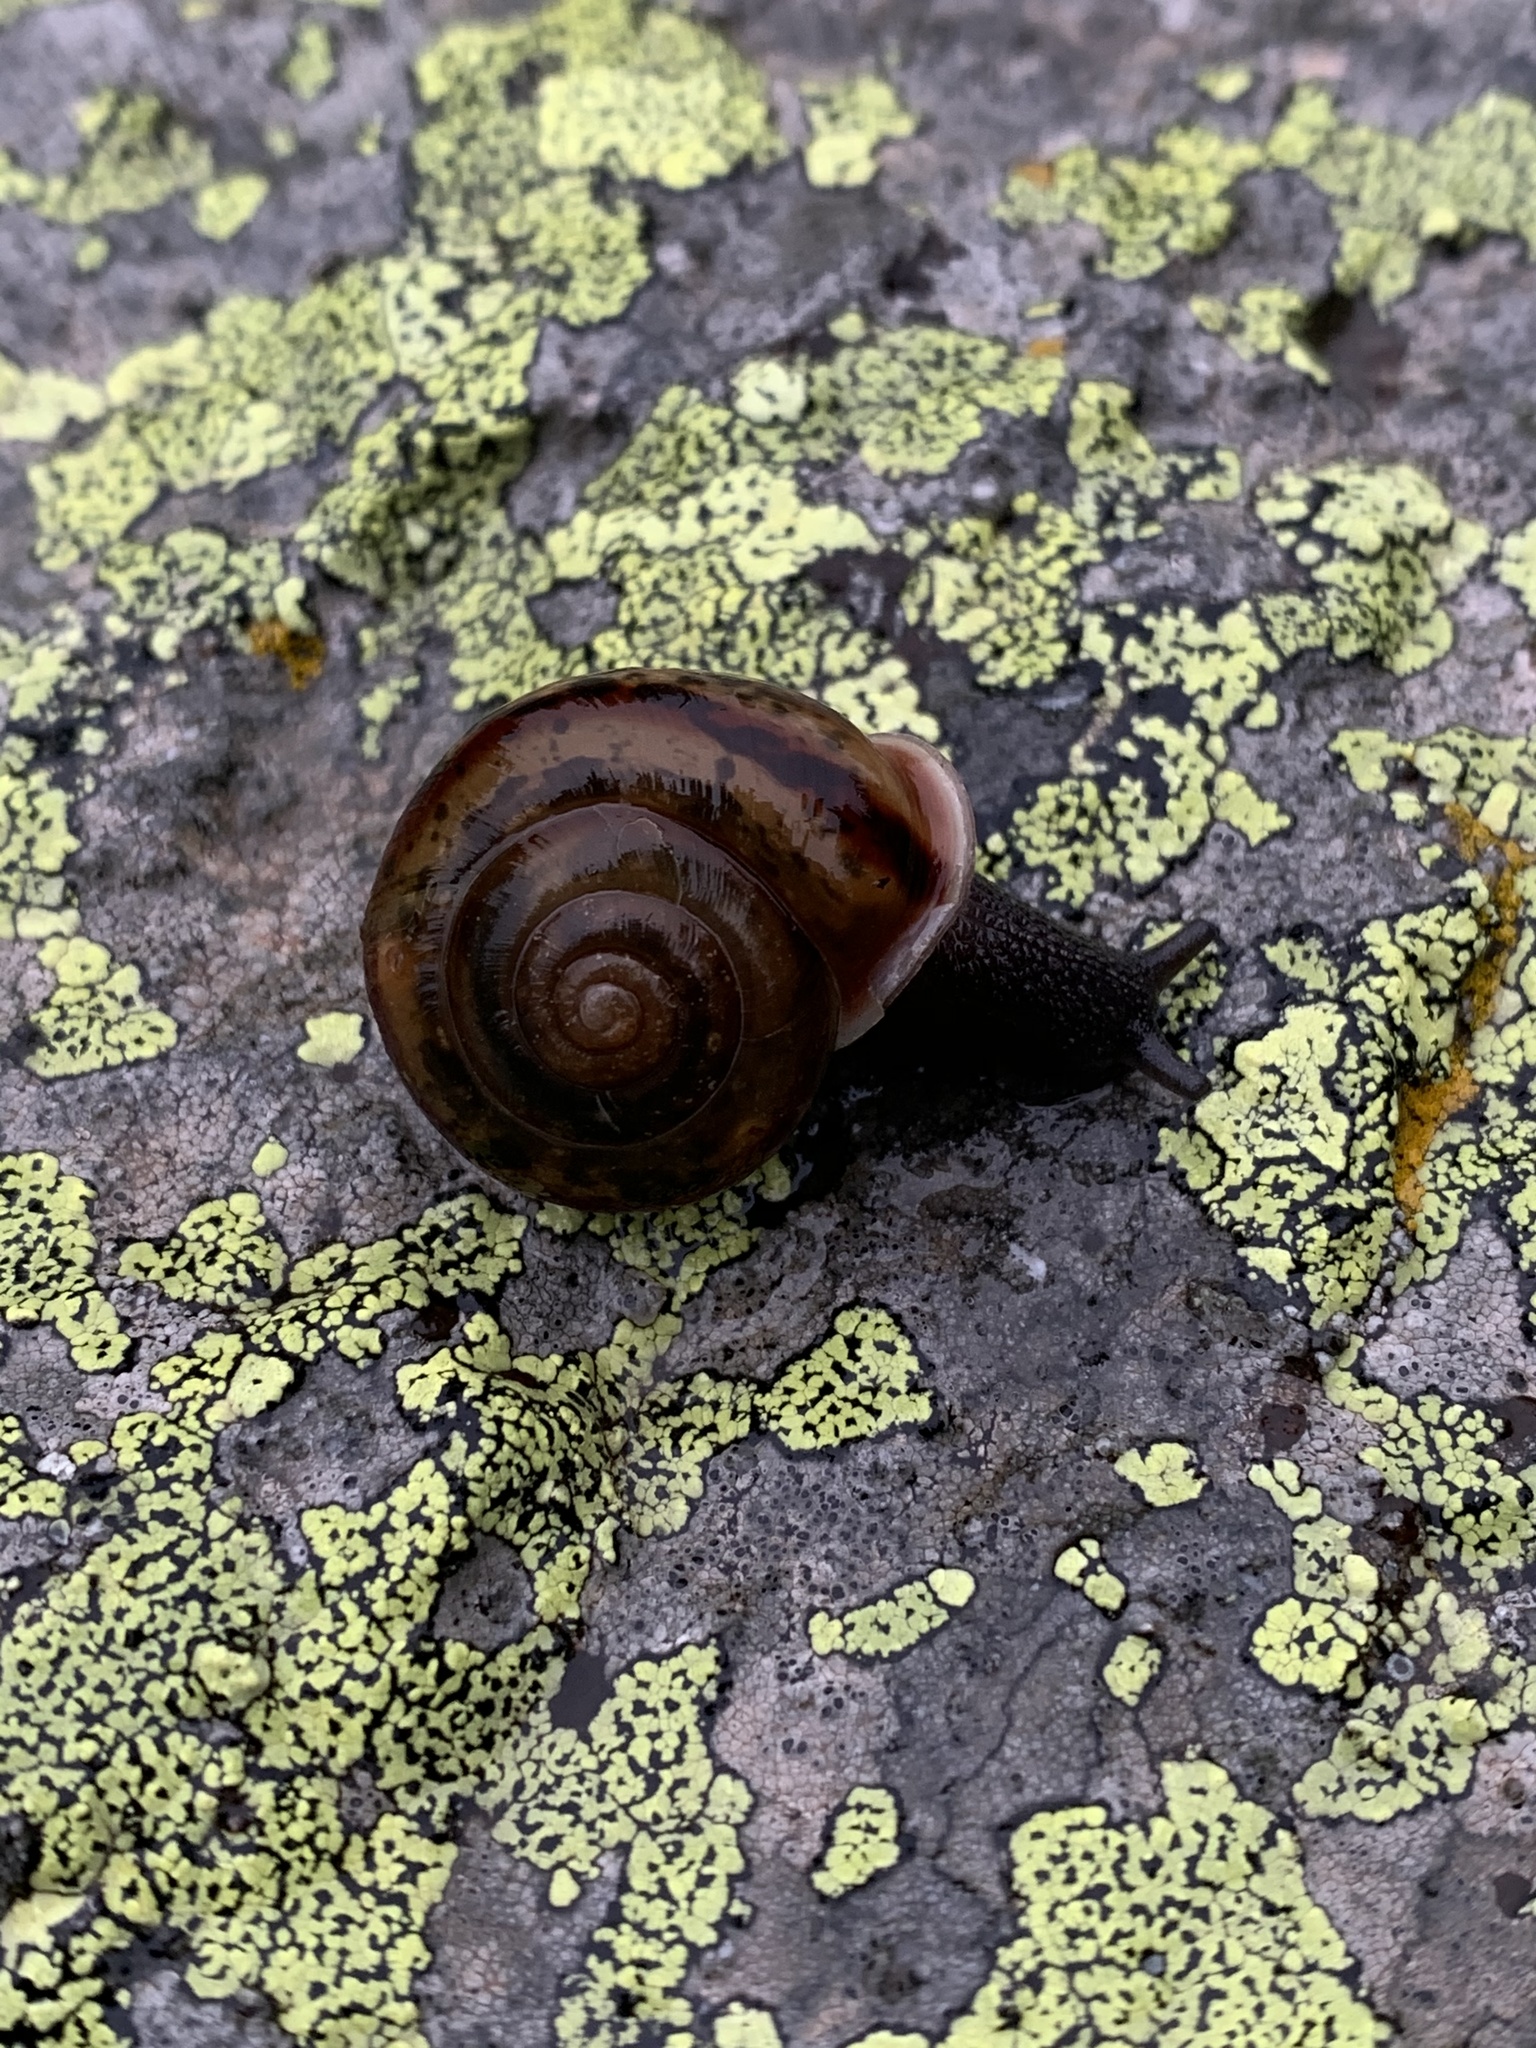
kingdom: Animalia
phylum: Mollusca
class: Gastropoda
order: Stylommatophora
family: Helicidae
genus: Chilostoma
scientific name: Chilostoma zonatum
